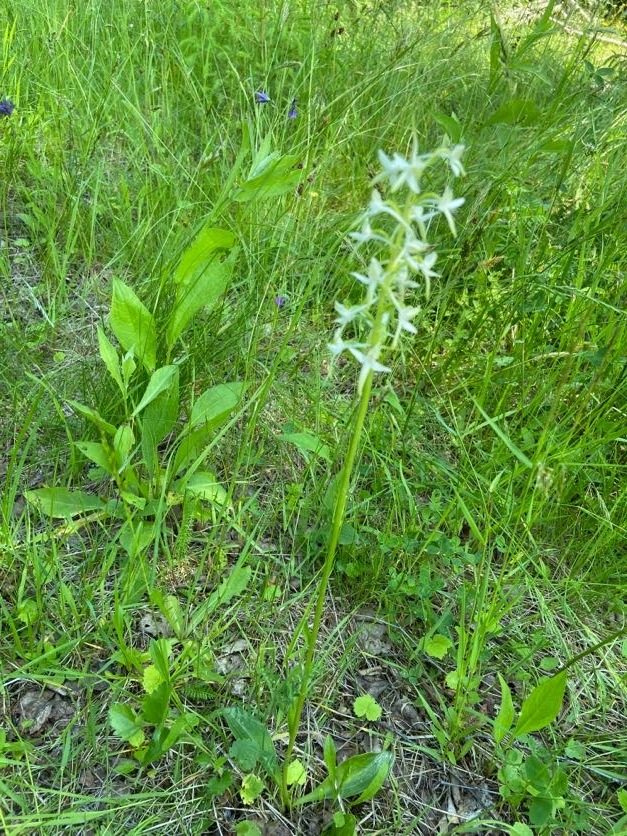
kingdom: Plantae
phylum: Tracheophyta
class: Liliopsida
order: Asparagales
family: Orchidaceae
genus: Platanthera
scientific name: Platanthera bifolia
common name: Lesser butterfly-orchid
